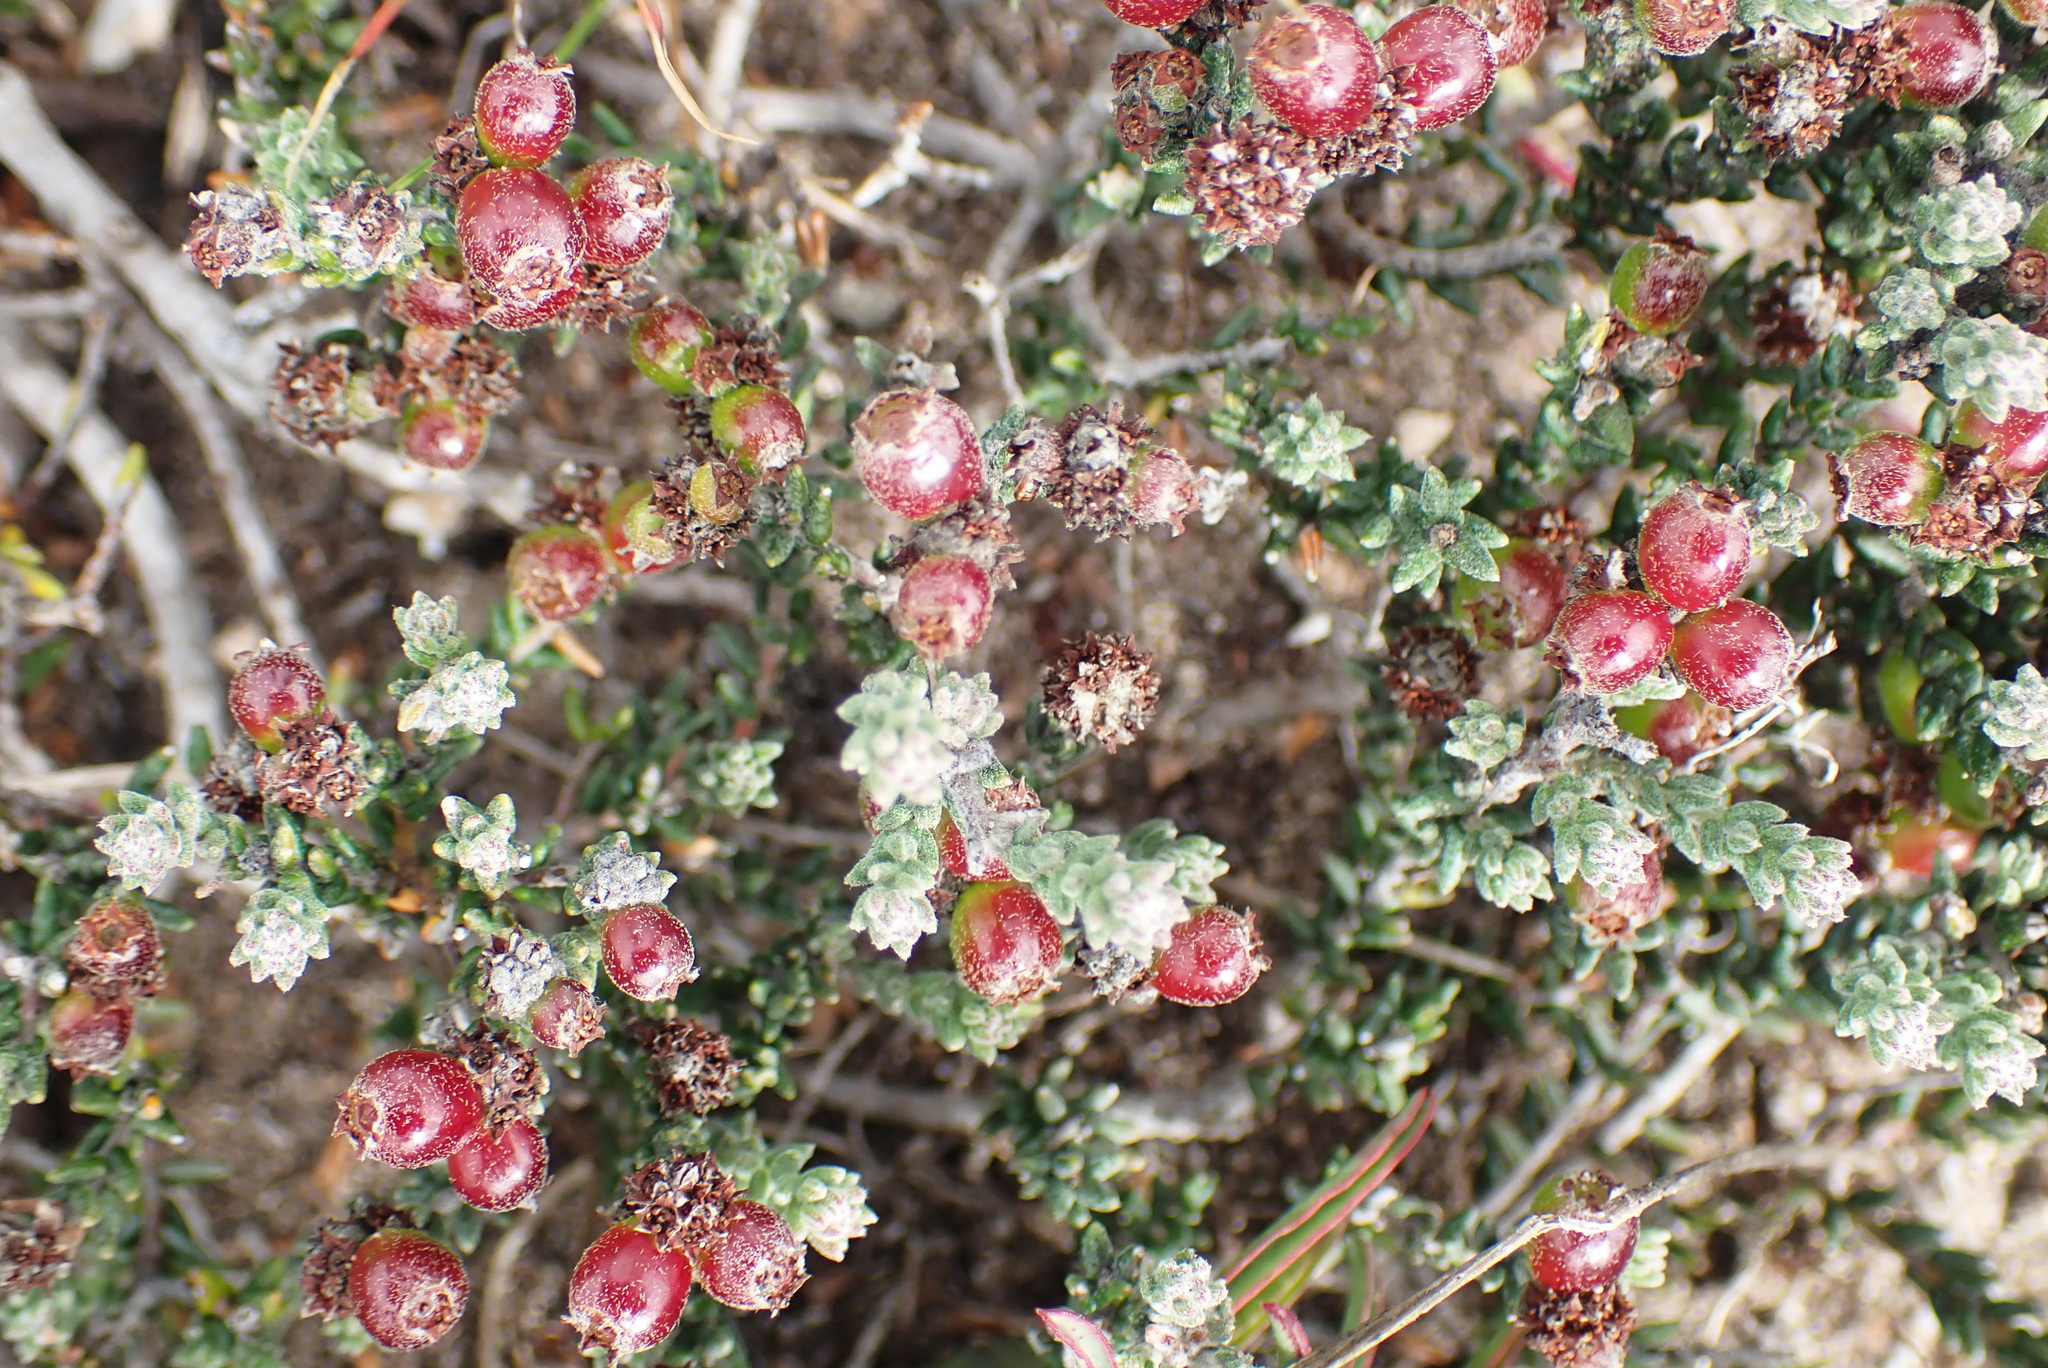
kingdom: Plantae
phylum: Tracheophyta
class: Magnoliopsida
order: Rosales
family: Rhamnaceae
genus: Phylica
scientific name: Phylica incurvata
